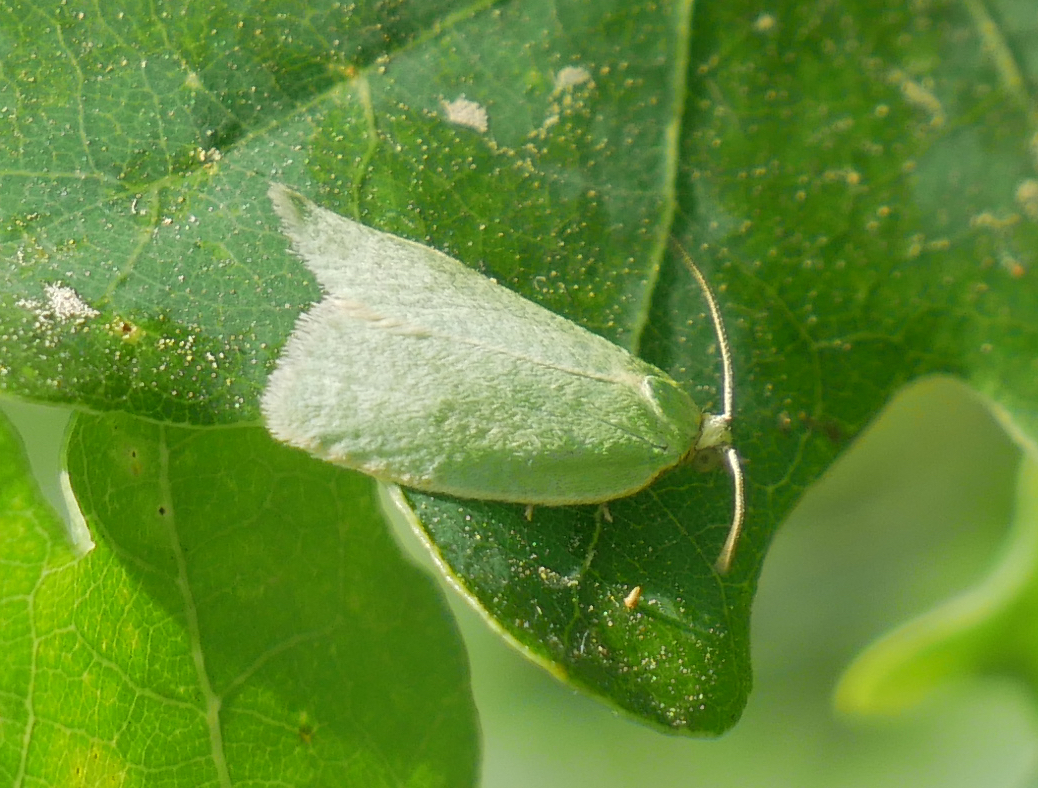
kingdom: Animalia
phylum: Arthropoda
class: Insecta
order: Lepidoptera
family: Tortricidae
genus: Tortrix
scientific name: Tortrix viridana
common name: Green oak tortrix
